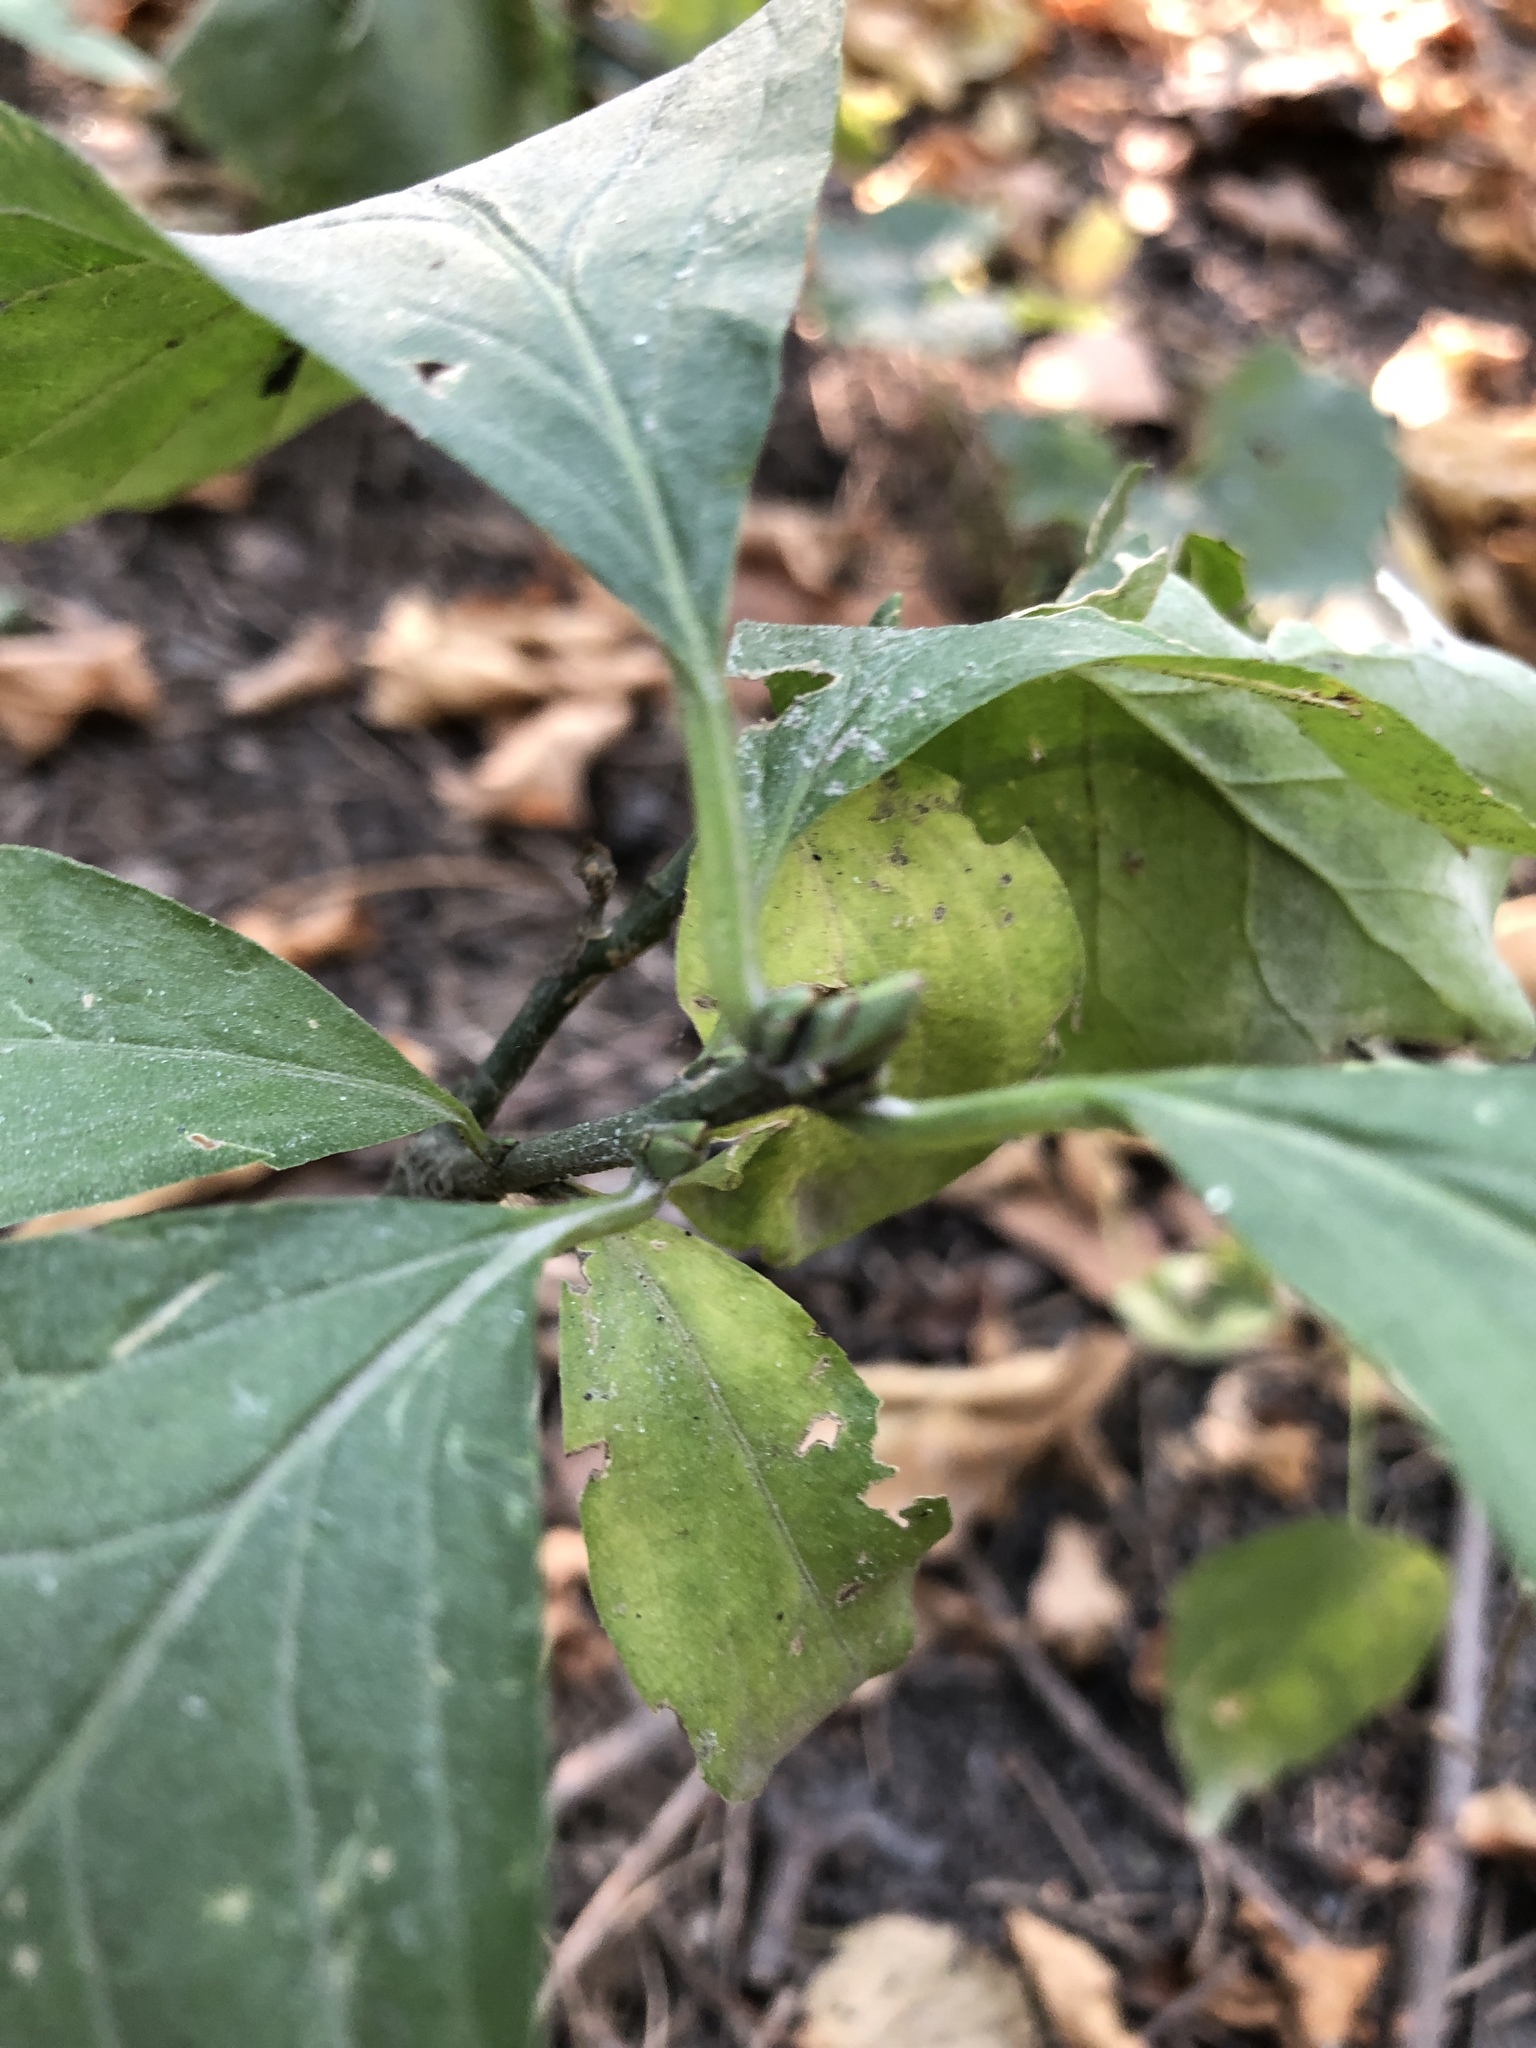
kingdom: Plantae
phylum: Tracheophyta
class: Magnoliopsida
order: Celastrales
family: Celastraceae
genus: Euonymus
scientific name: Euonymus verrucosus
